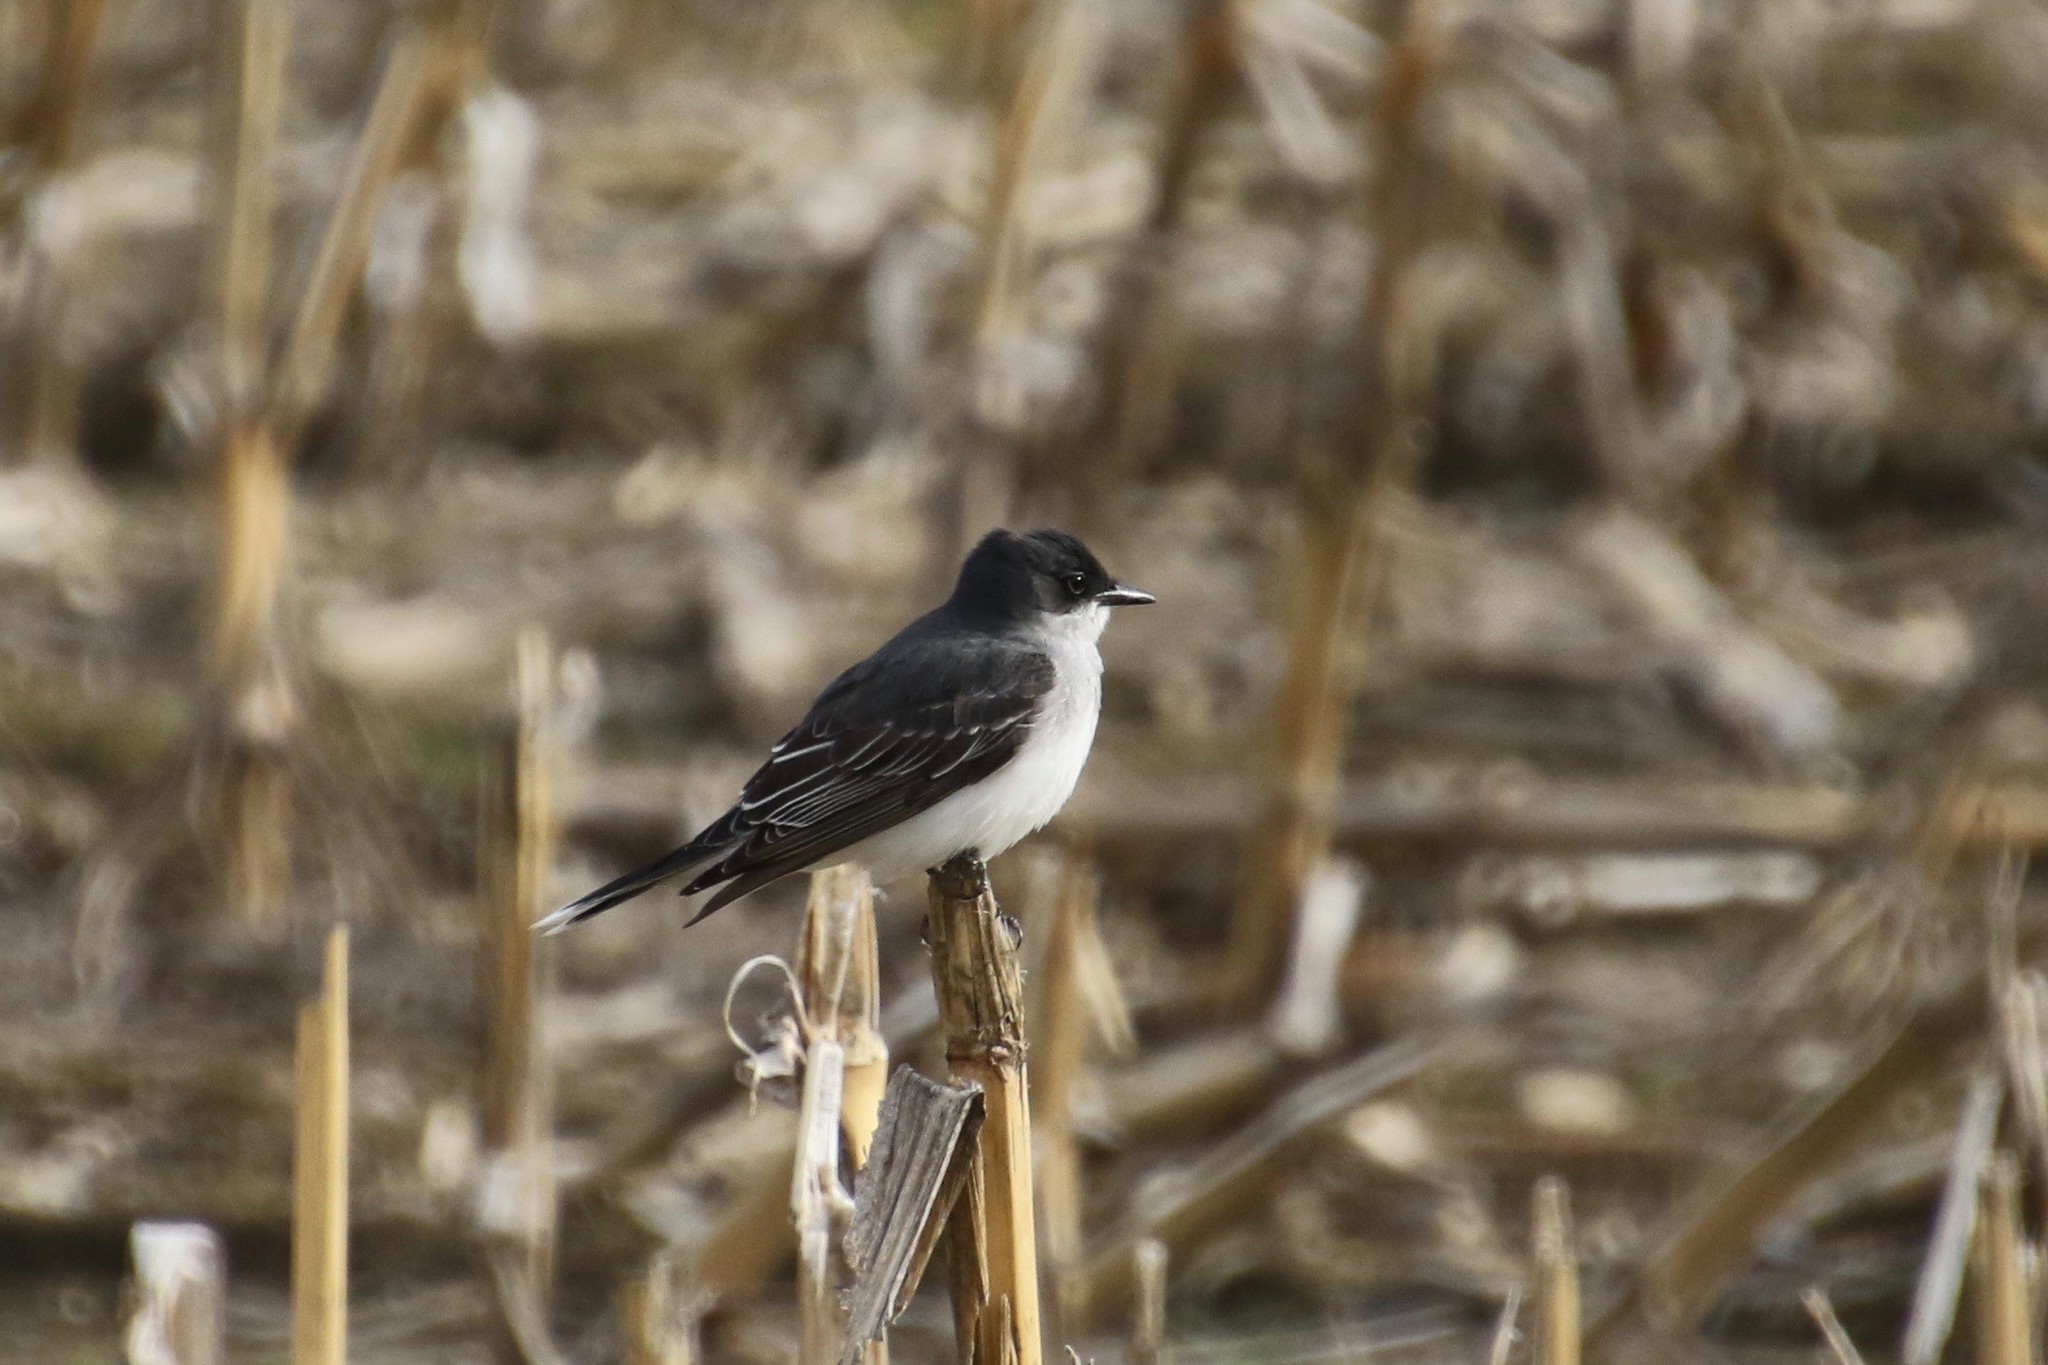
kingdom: Animalia
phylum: Chordata
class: Aves
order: Passeriformes
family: Tyrannidae
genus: Tyrannus
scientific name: Tyrannus tyrannus
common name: Eastern kingbird
